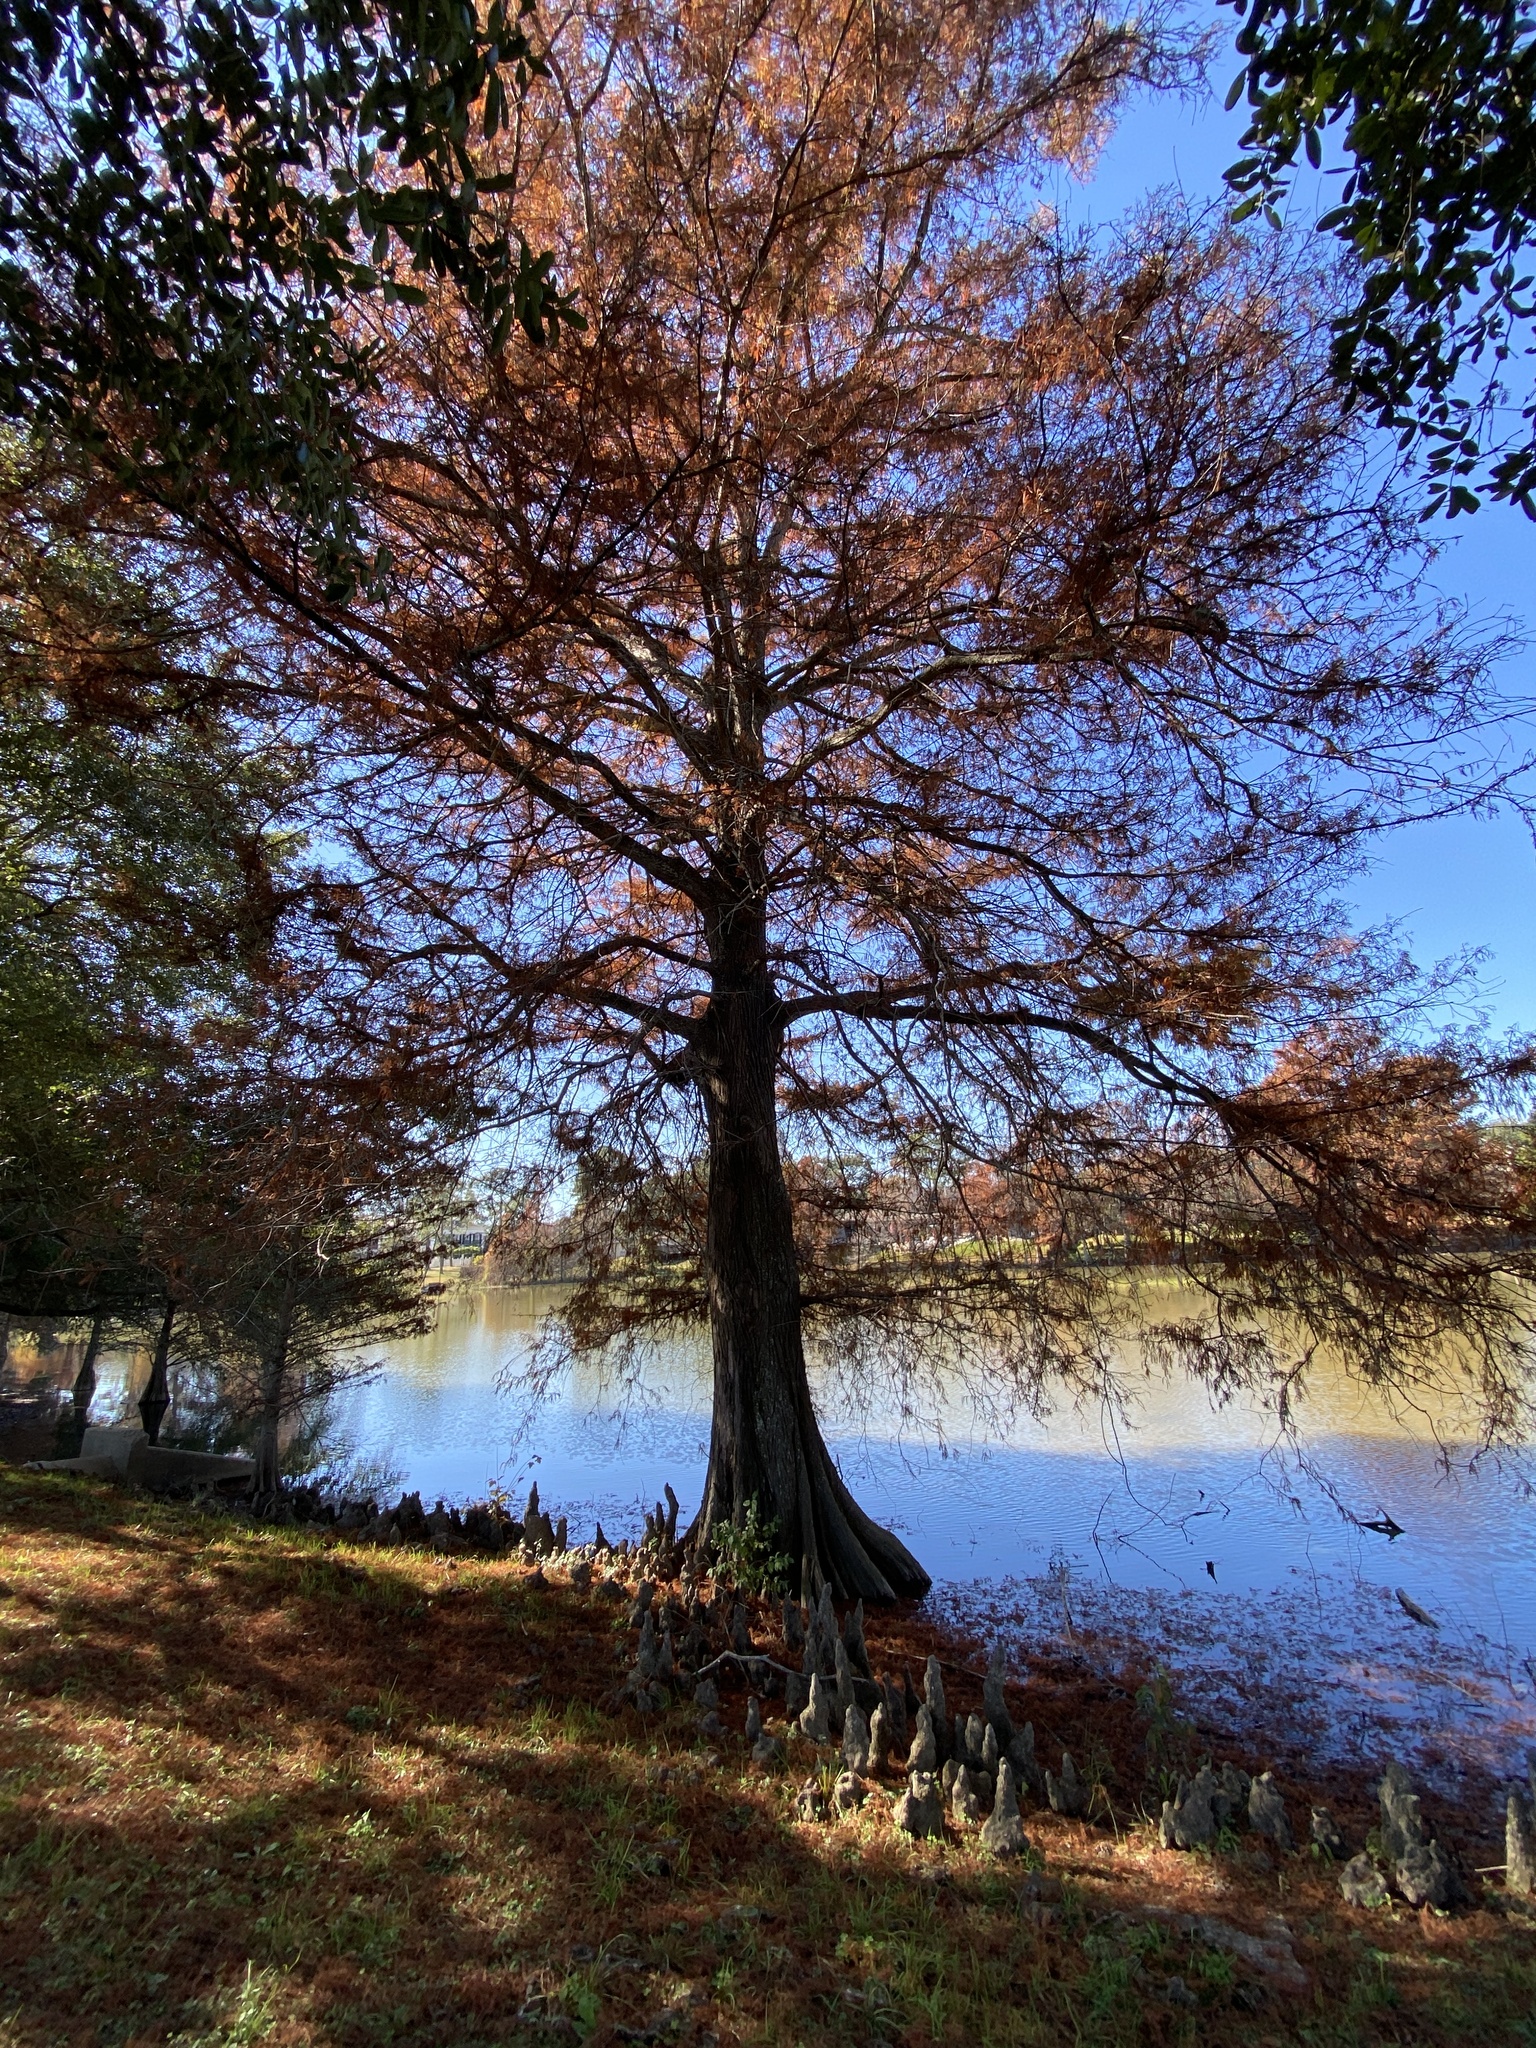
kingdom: Plantae
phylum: Tracheophyta
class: Pinopsida
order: Pinales
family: Cupressaceae
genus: Taxodium
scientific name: Taxodium distichum
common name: Bald cypress
